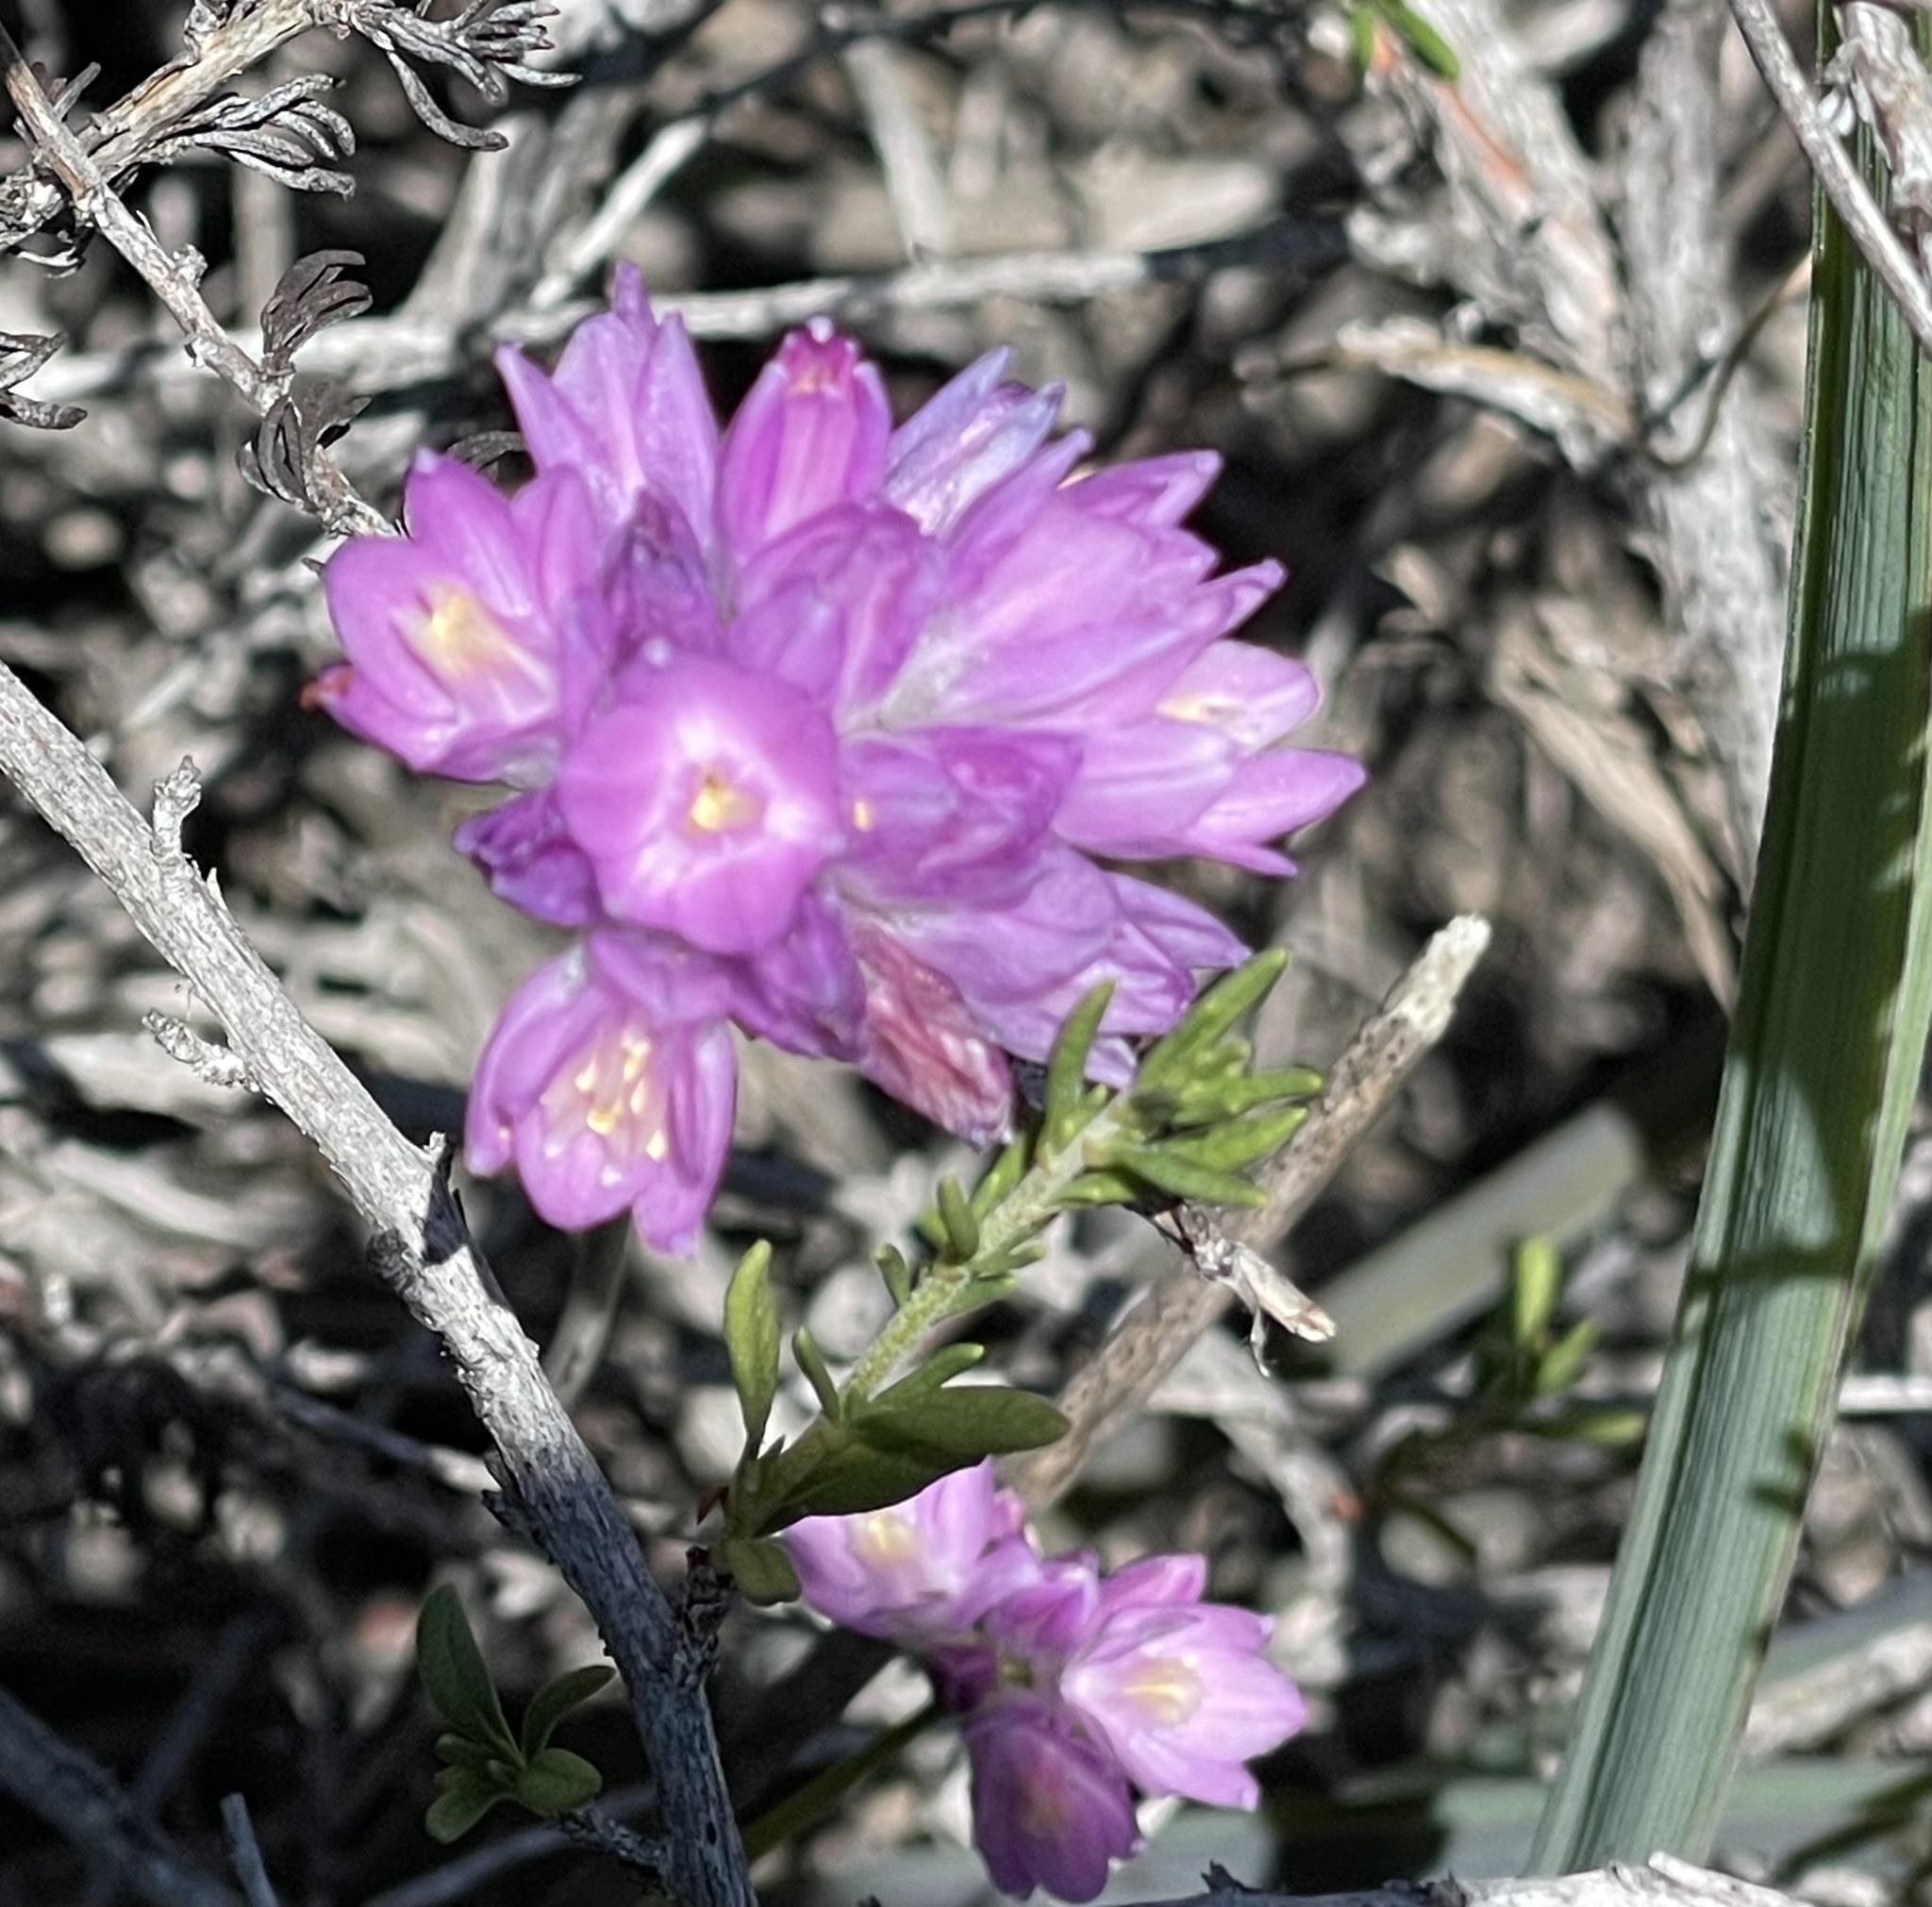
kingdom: Plantae
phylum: Tracheophyta
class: Liliopsida
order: Asparagales
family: Asparagaceae
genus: Dipterostemon
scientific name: Dipterostemon capitatus
